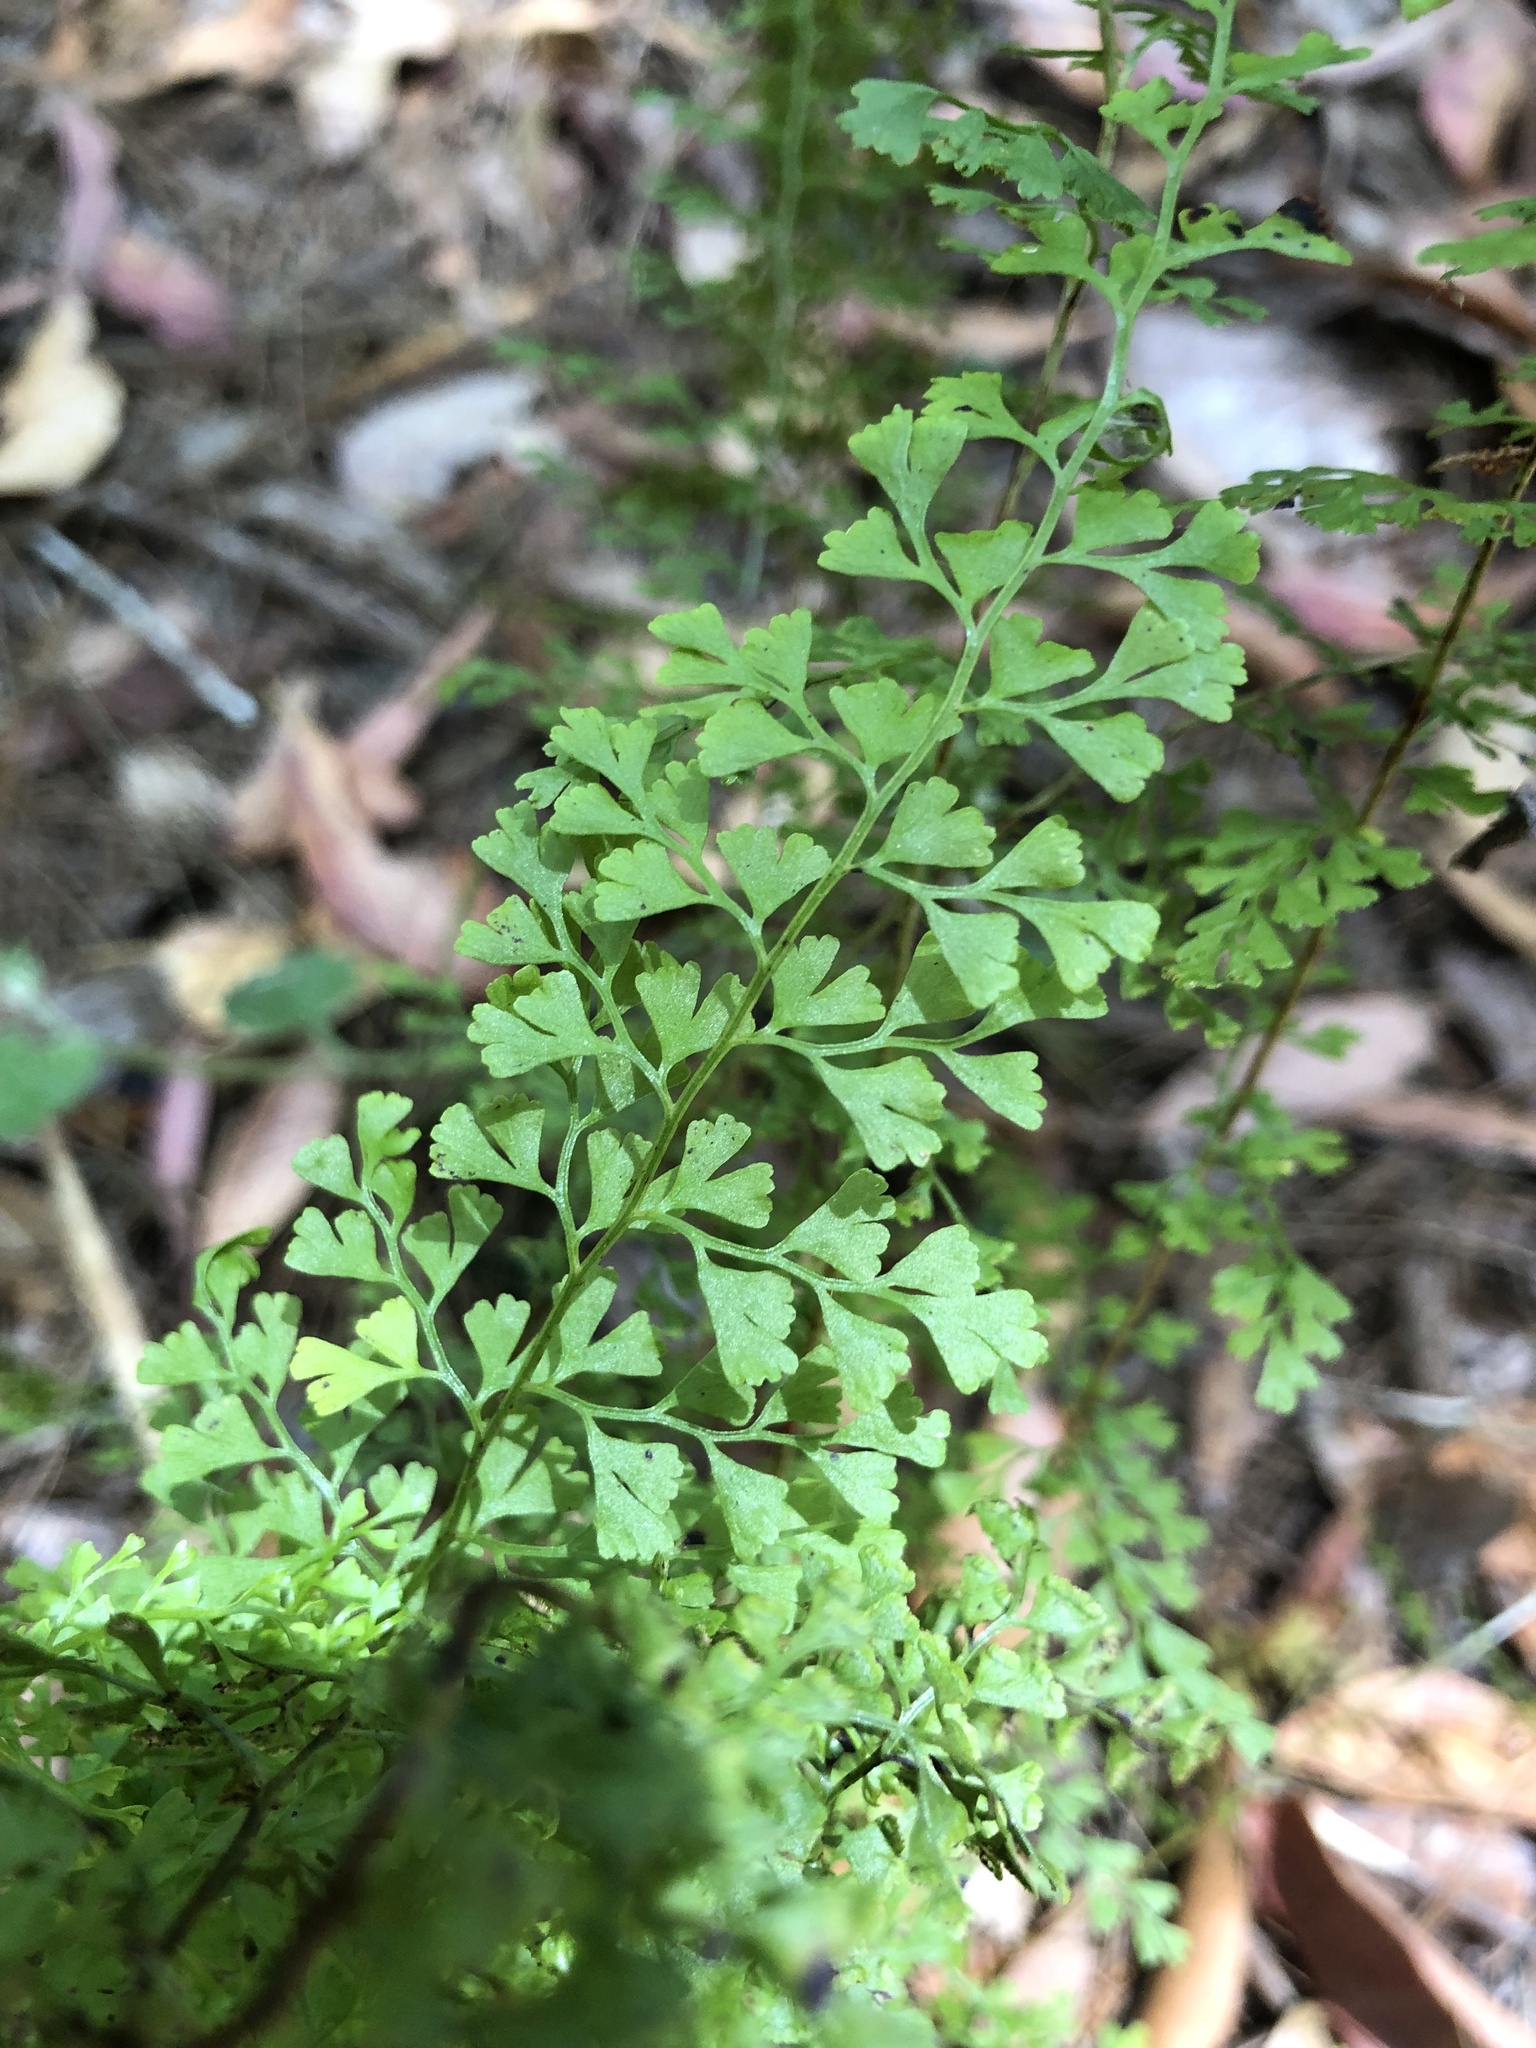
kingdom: Plantae
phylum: Tracheophyta
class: Polypodiopsida
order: Polypodiales
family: Lindsaeaceae
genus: Lindsaea
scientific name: Lindsaea microphylla
